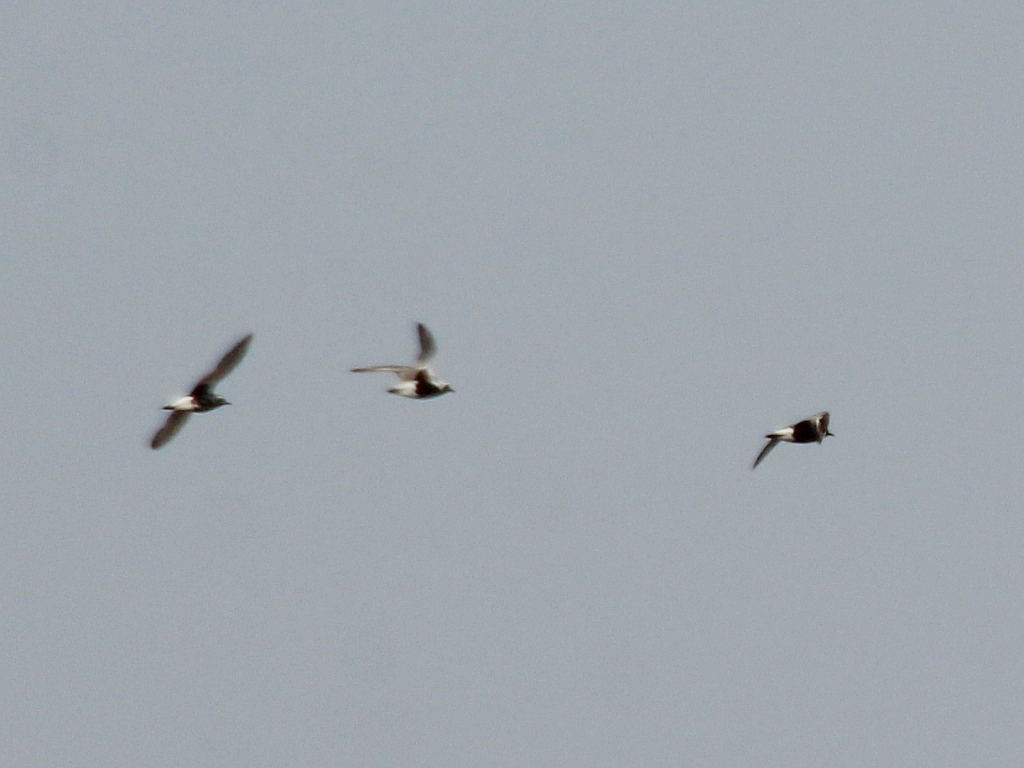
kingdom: Animalia
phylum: Chordata
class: Aves
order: Charadriiformes
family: Charadriidae
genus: Pluvialis
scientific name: Pluvialis squatarola
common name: Grey plover
